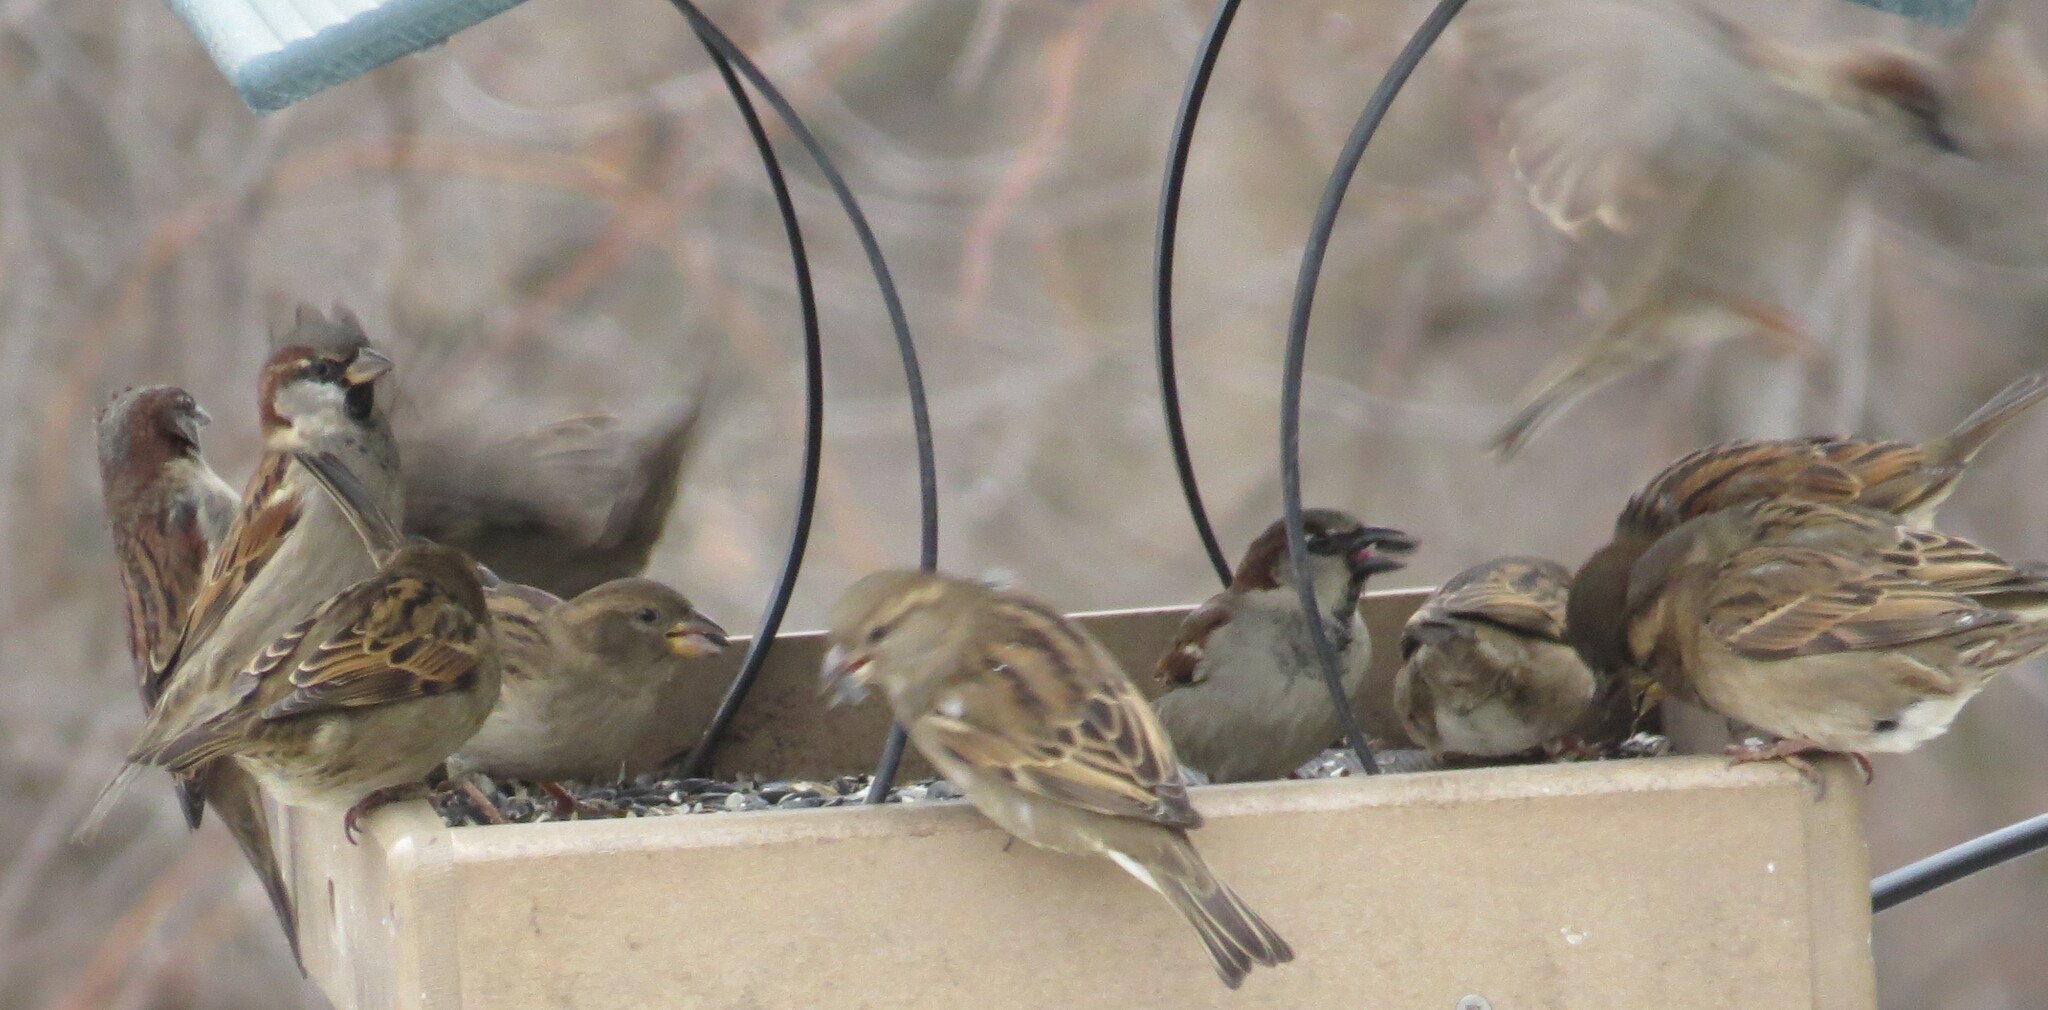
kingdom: Animalia
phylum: Chordata
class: Aves
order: Passeriformes
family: Passeridae
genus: Passer
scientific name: Passer domesticus
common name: House sparrow
